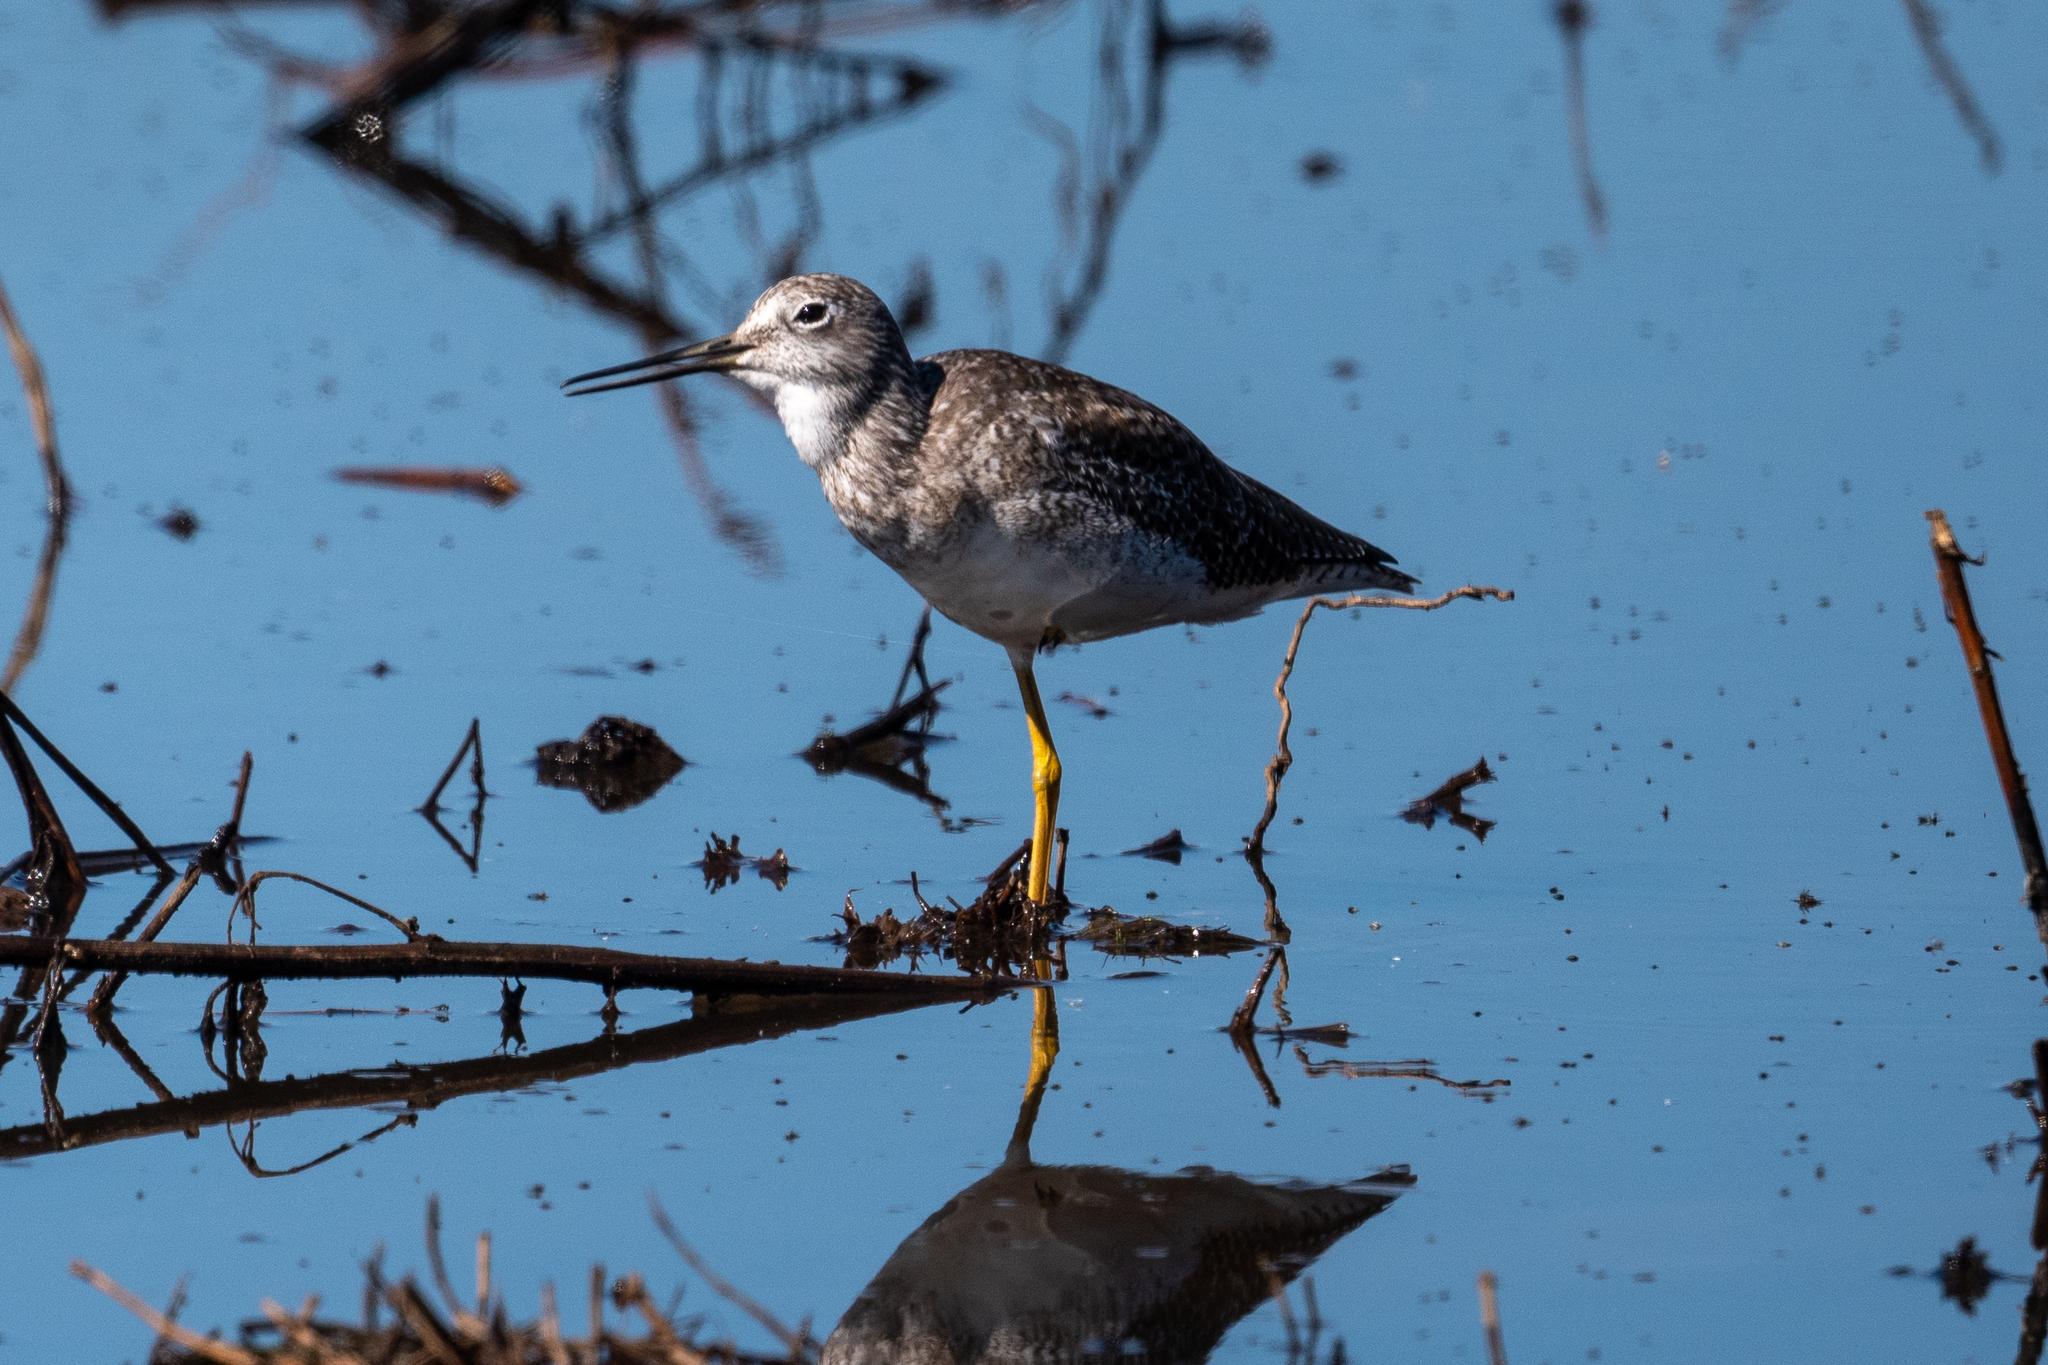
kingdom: Animalia
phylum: Chordata
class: Aves
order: Charadriiformes
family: Scolopacidae
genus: Tringa
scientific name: Tringa melanoleuca
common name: Greater yellowlegs
